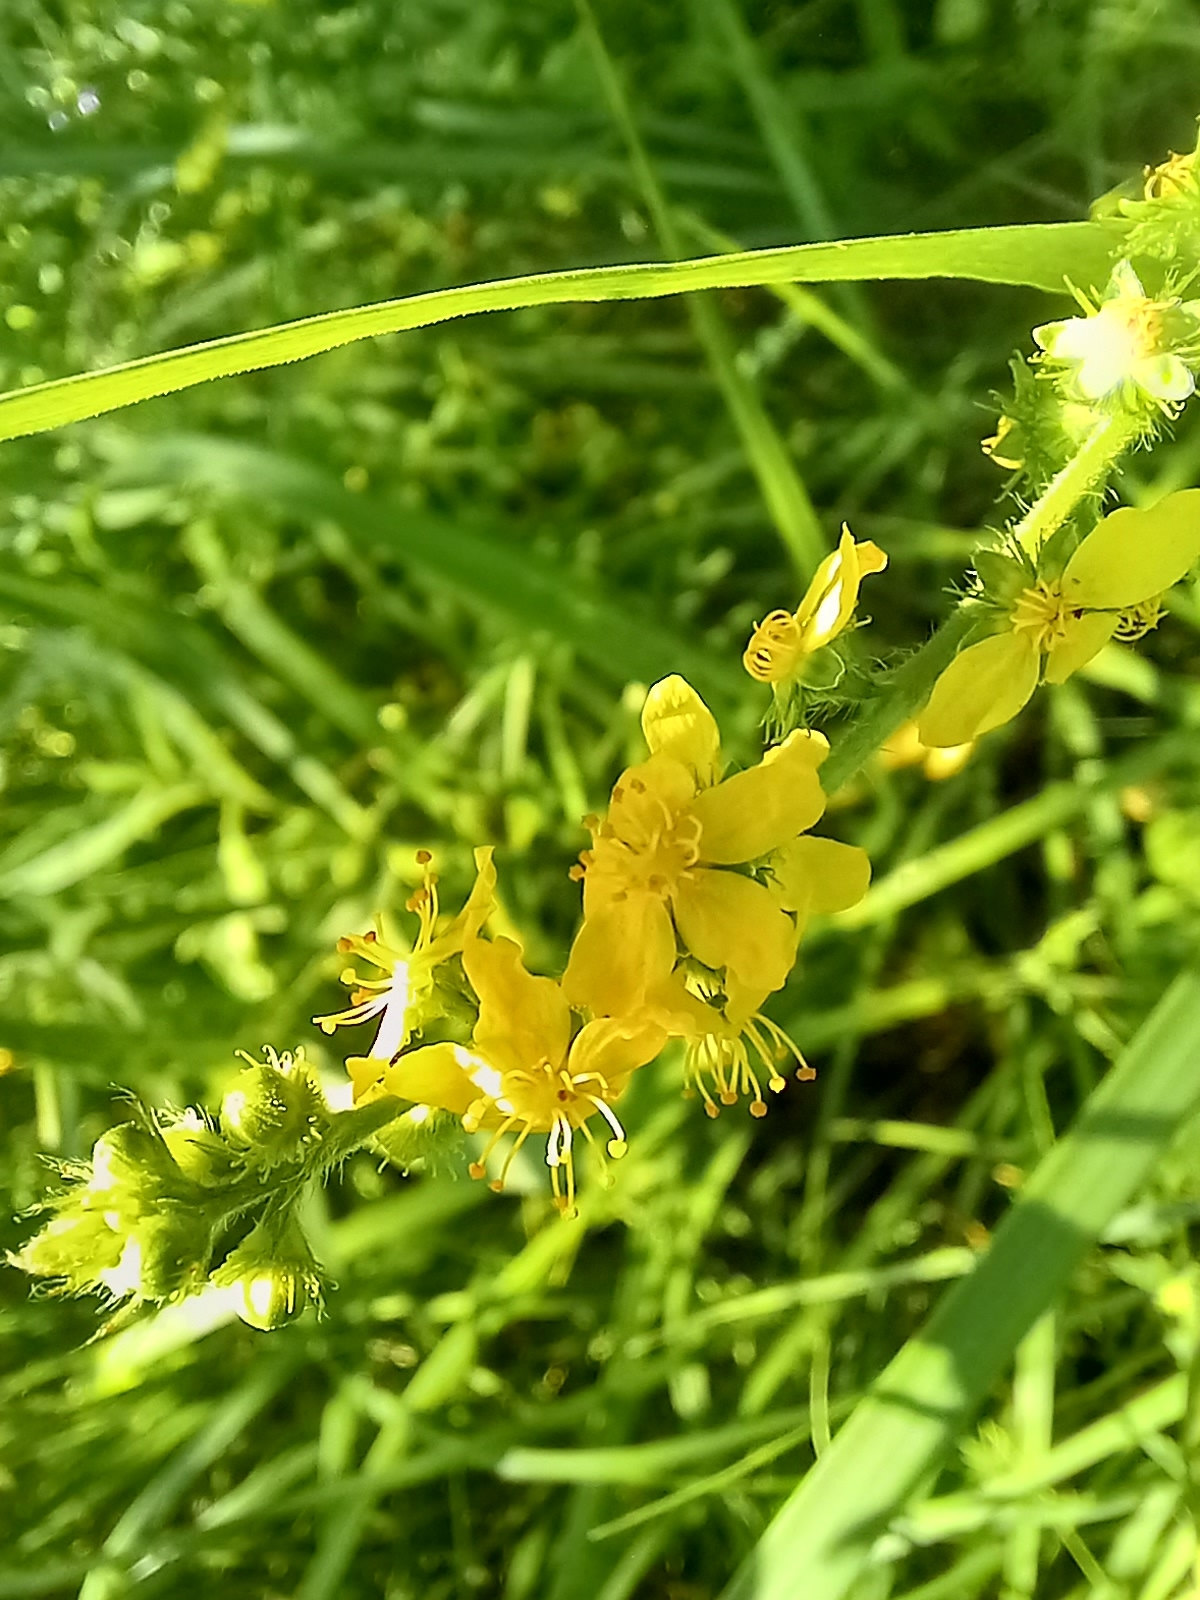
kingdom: Plantae
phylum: Tracheophyta
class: Magnoliopsida
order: Rosales
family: Rosaceae
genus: Agrimonia
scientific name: Agrimonia eupatoria
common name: Agrimony
